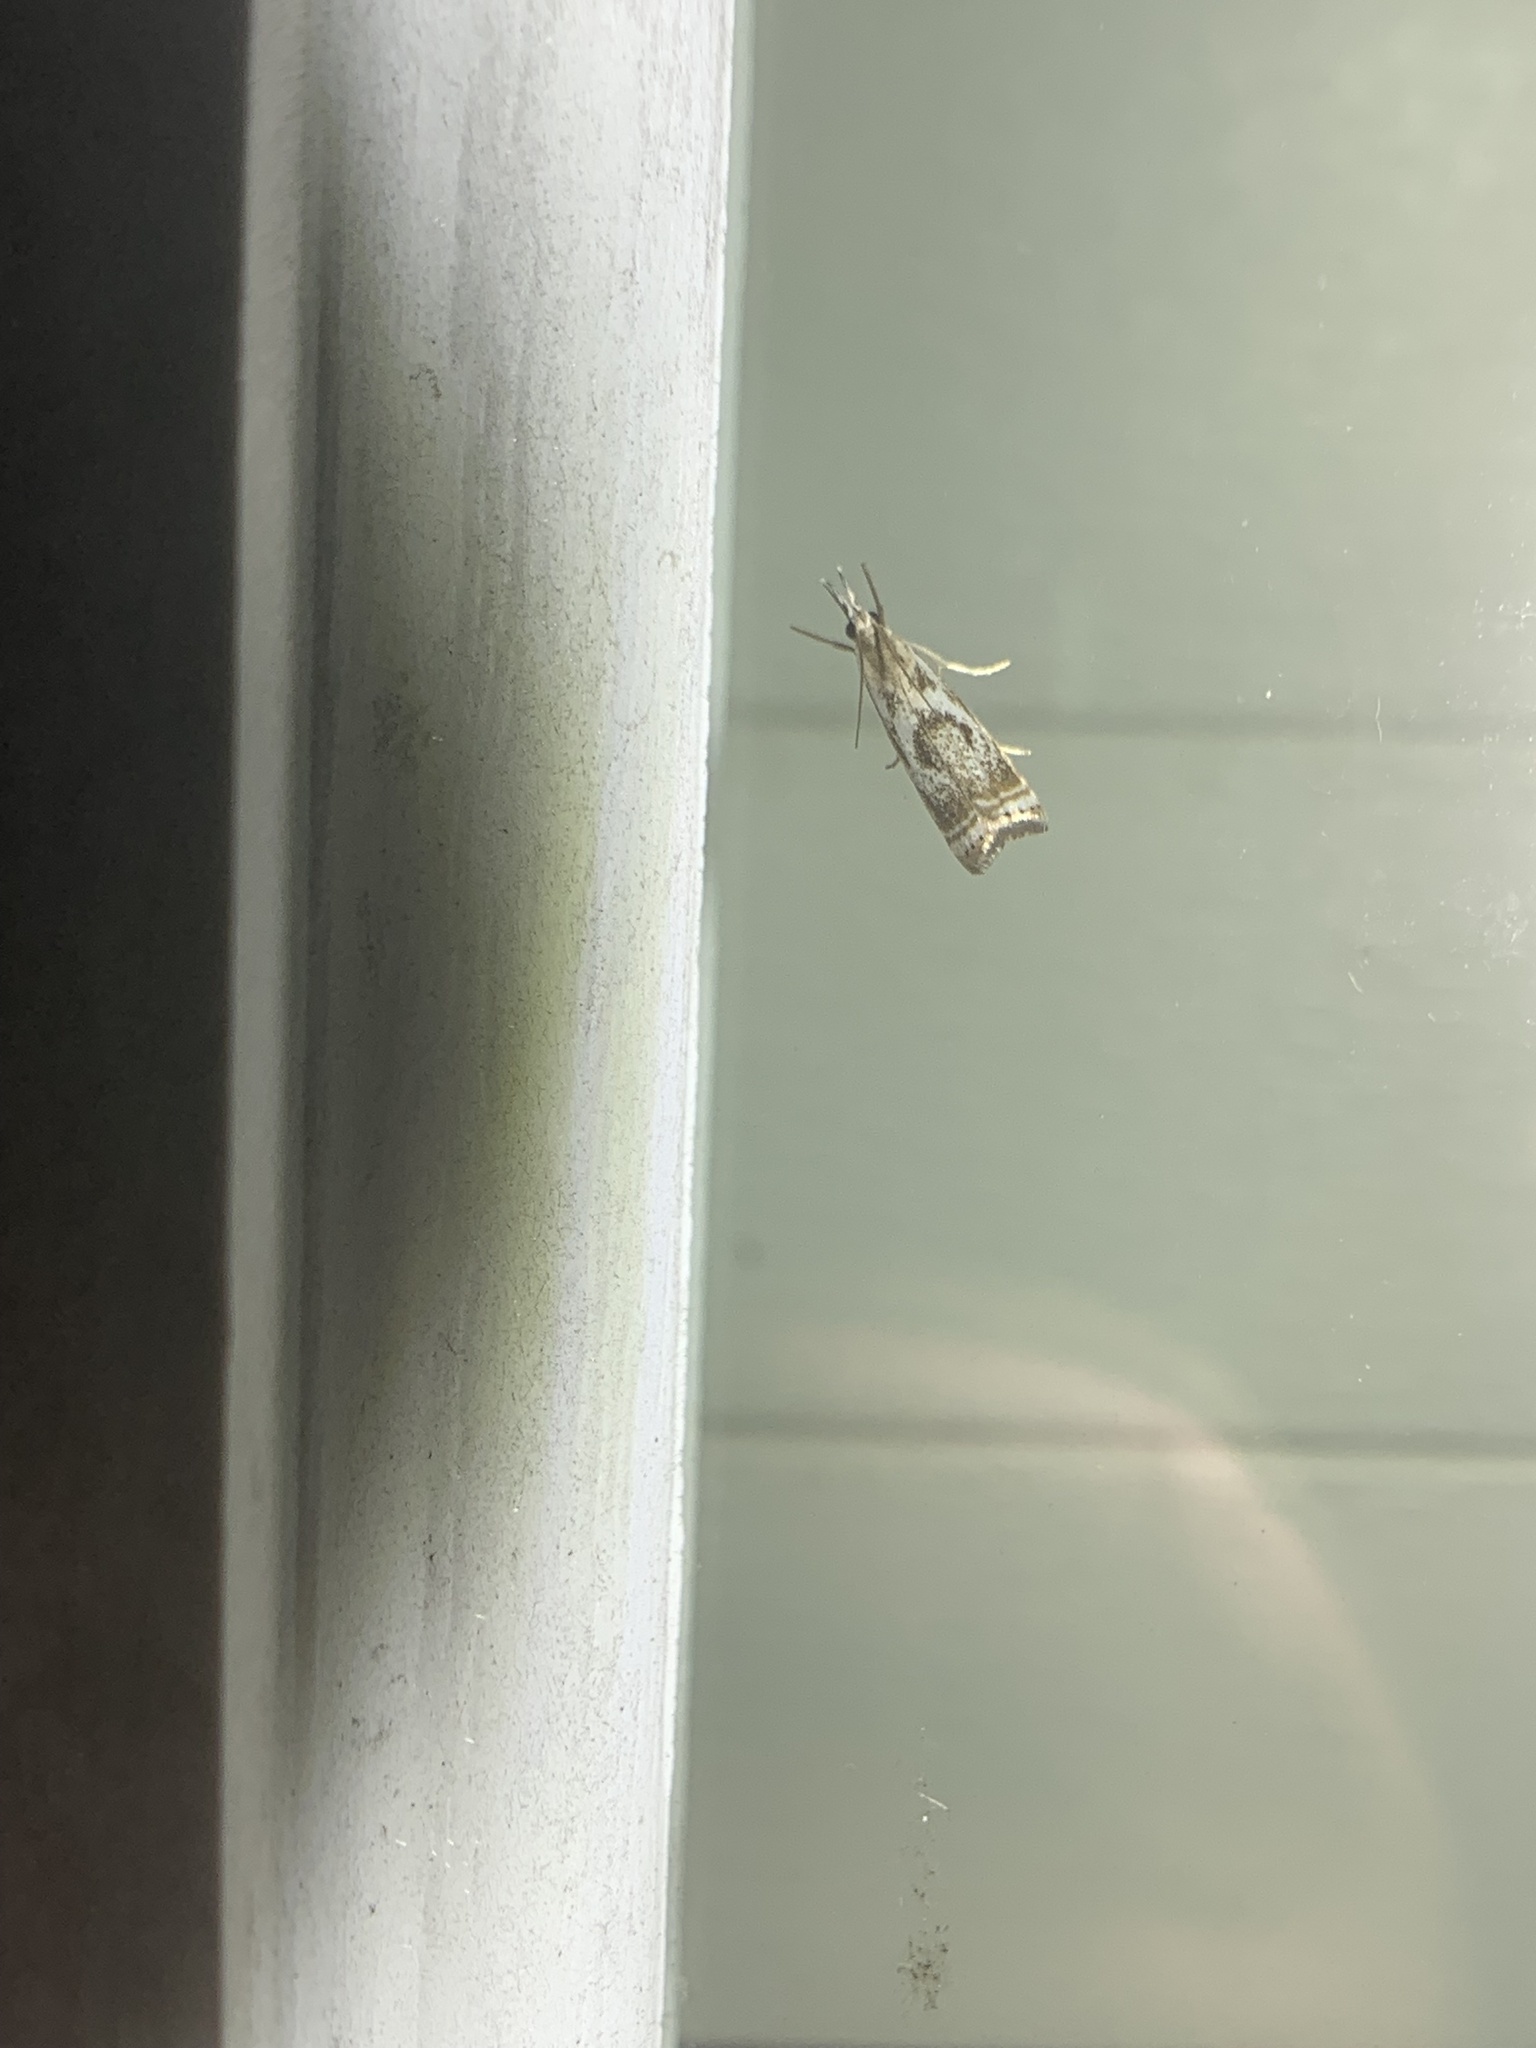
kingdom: Animalia
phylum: Arthropoda
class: Insecta
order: Lepidoptera
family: Crambidae
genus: Microcrambus
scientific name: Microcrambus elegans
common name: Elegant grass-veneer
